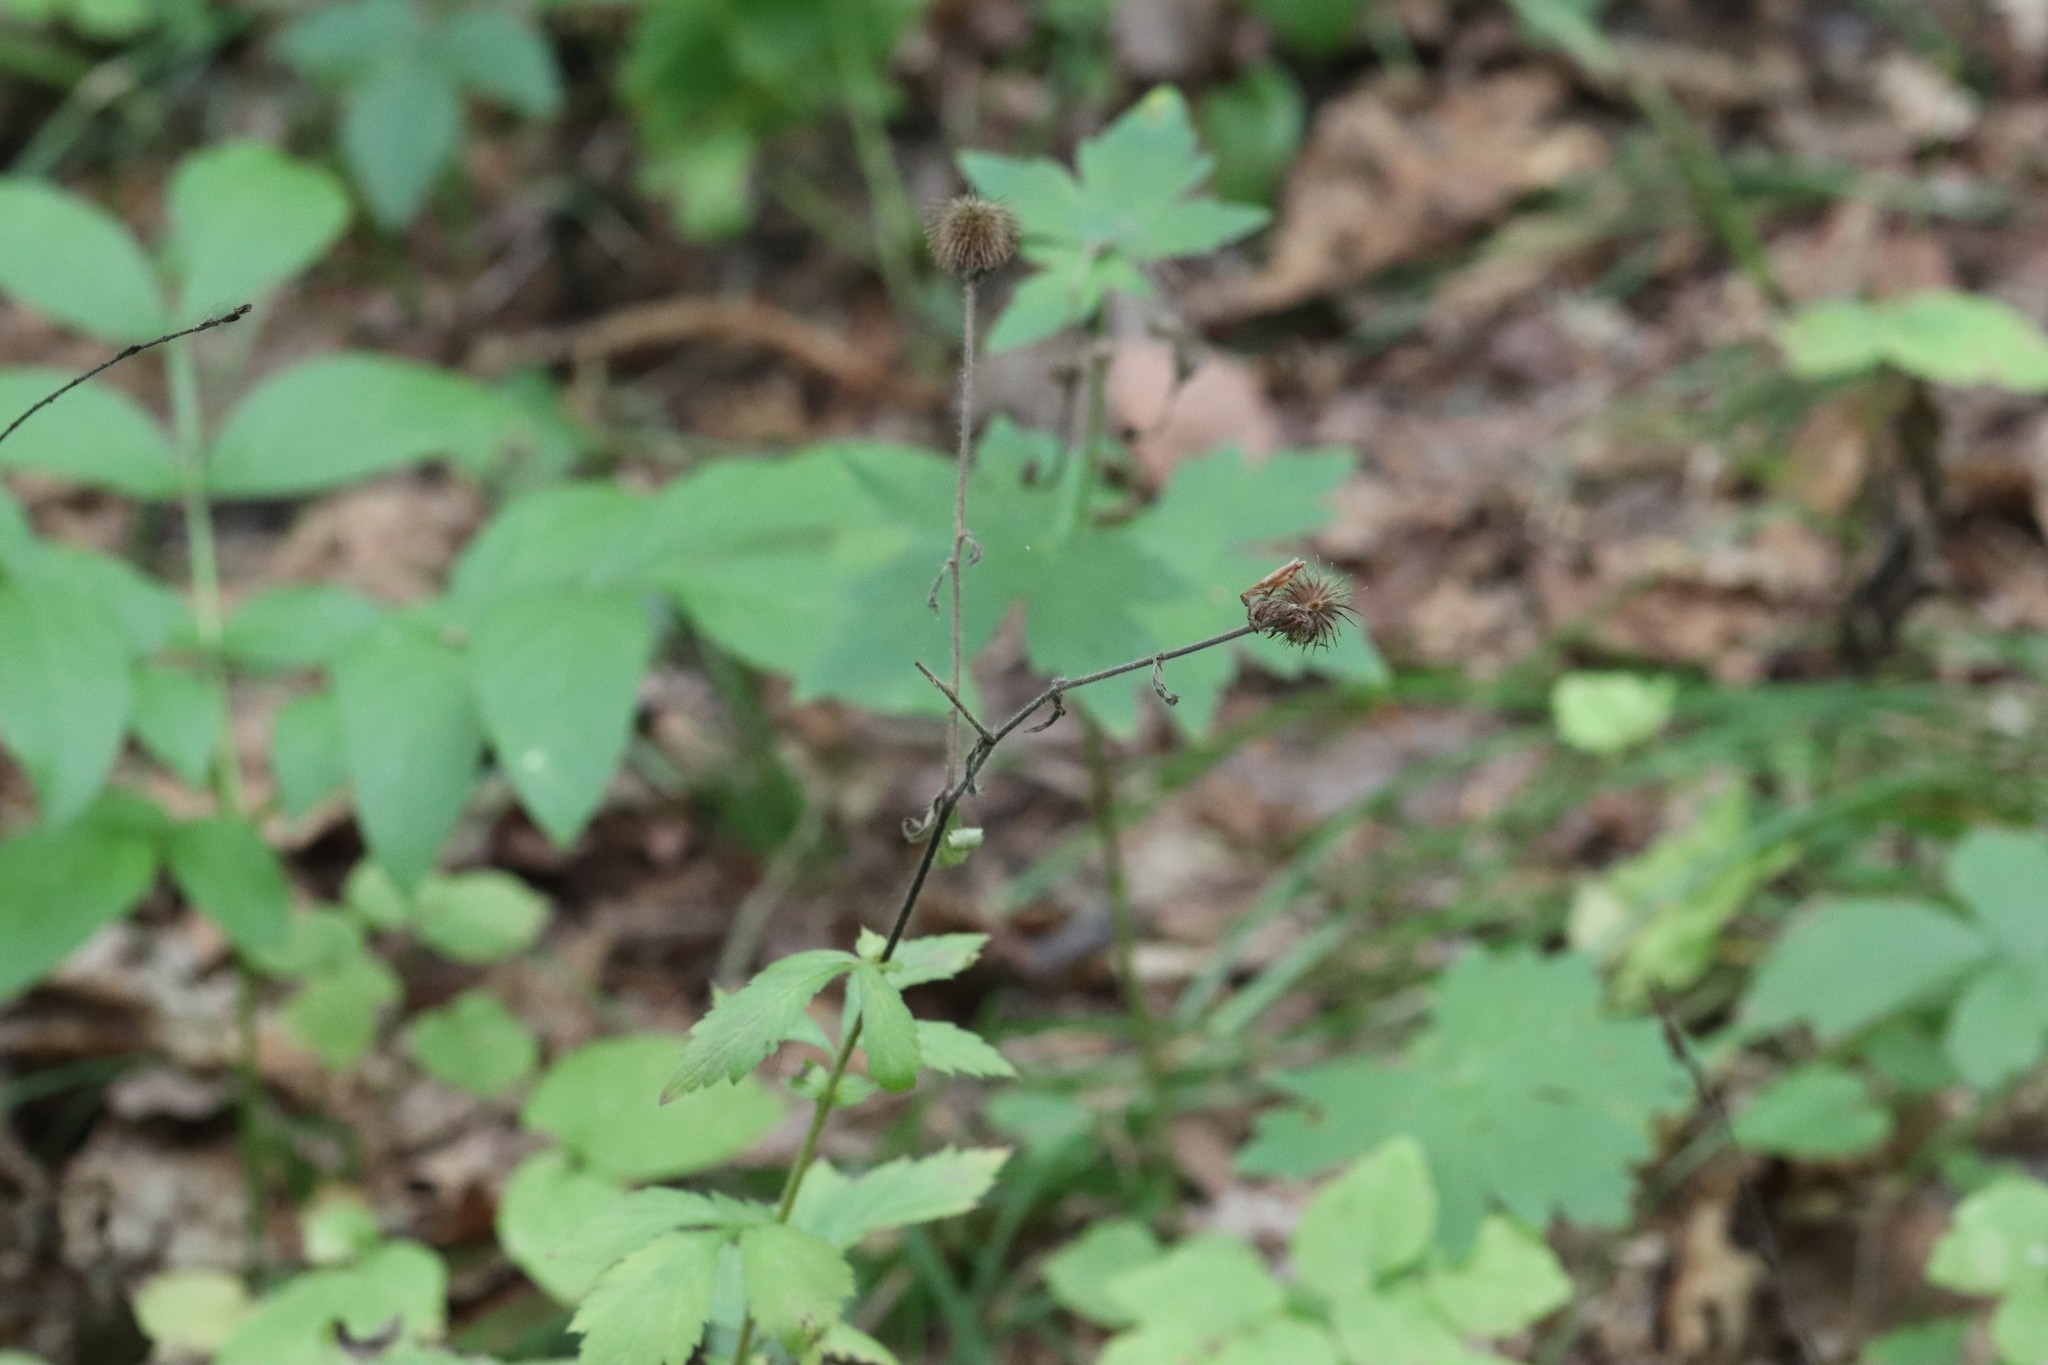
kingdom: Plantae
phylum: Tracheophyta
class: Magnoliopsida
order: Rosales
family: Rosaceae
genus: Geum
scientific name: Geum aleppicum
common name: Yellow avens
